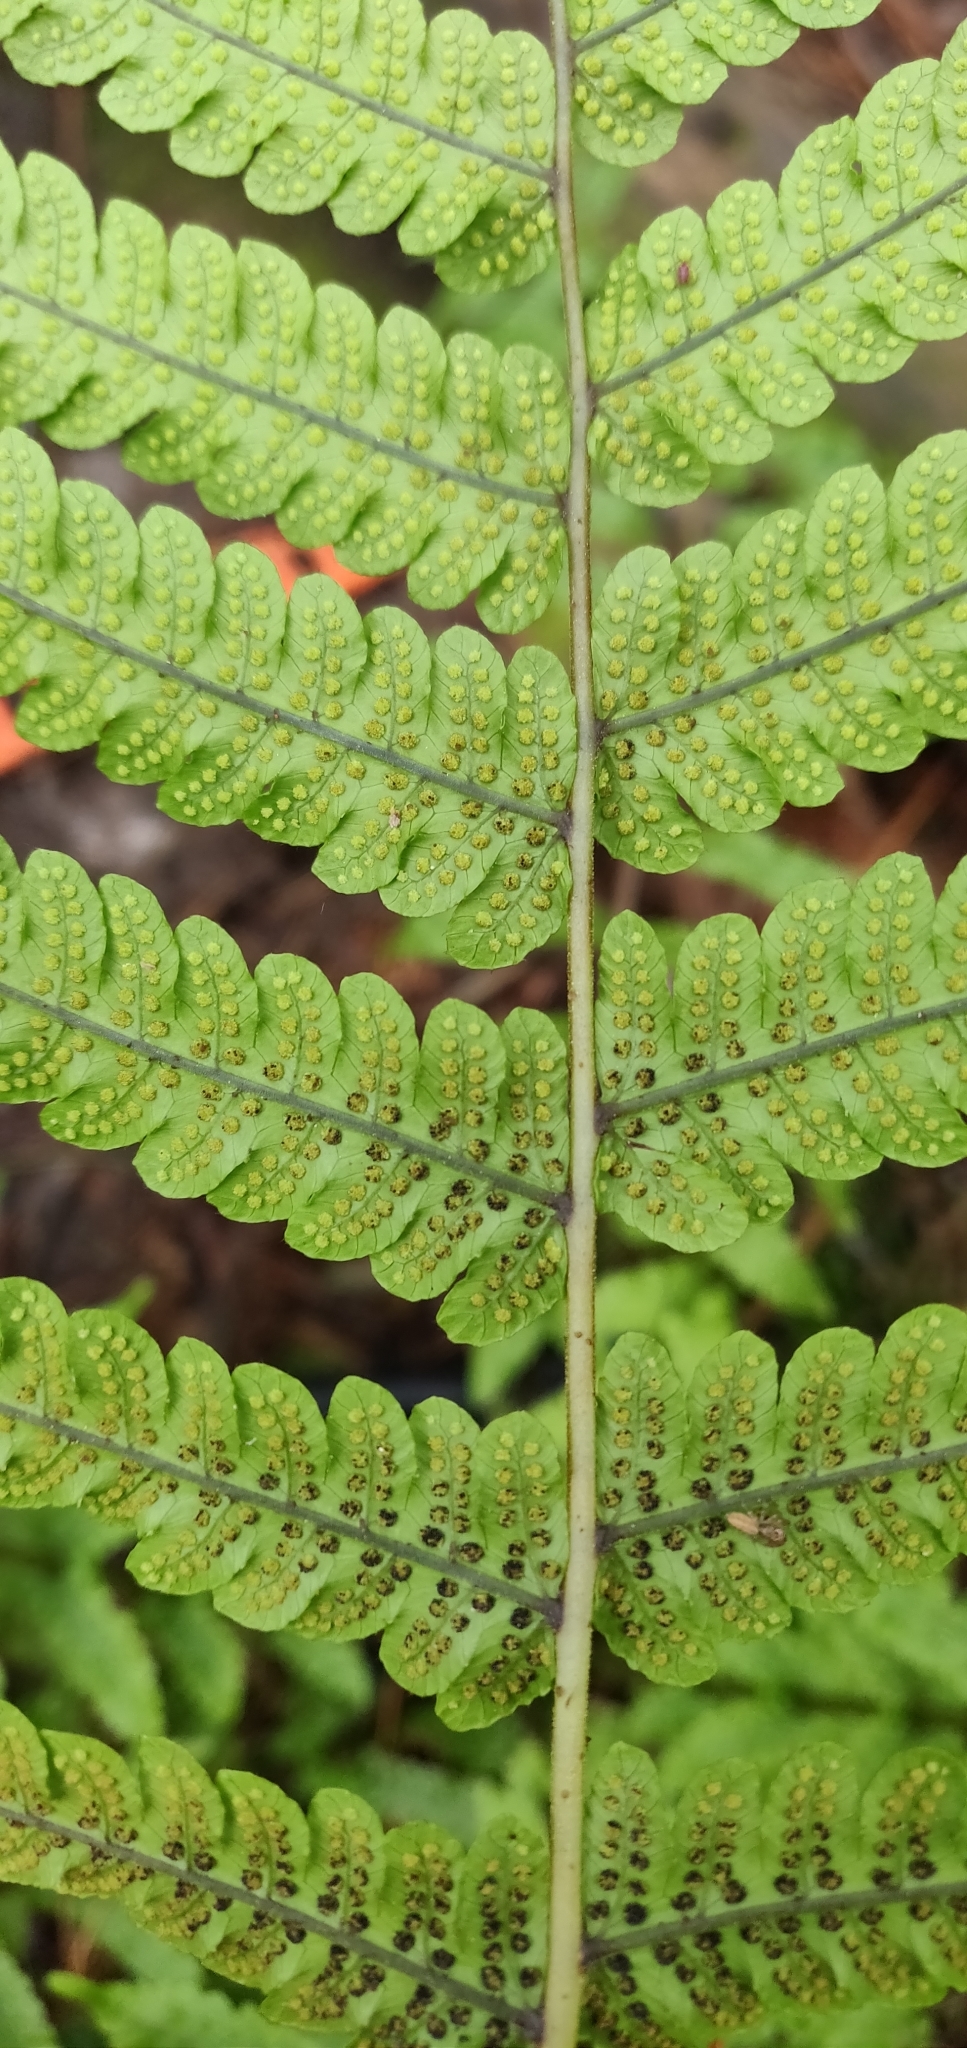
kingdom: Plantae
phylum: Tracheophyta
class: Polypodiopsida
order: Polypodiales
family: Thelypteridaceae
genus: Pakau
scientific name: Pakau pennigera
